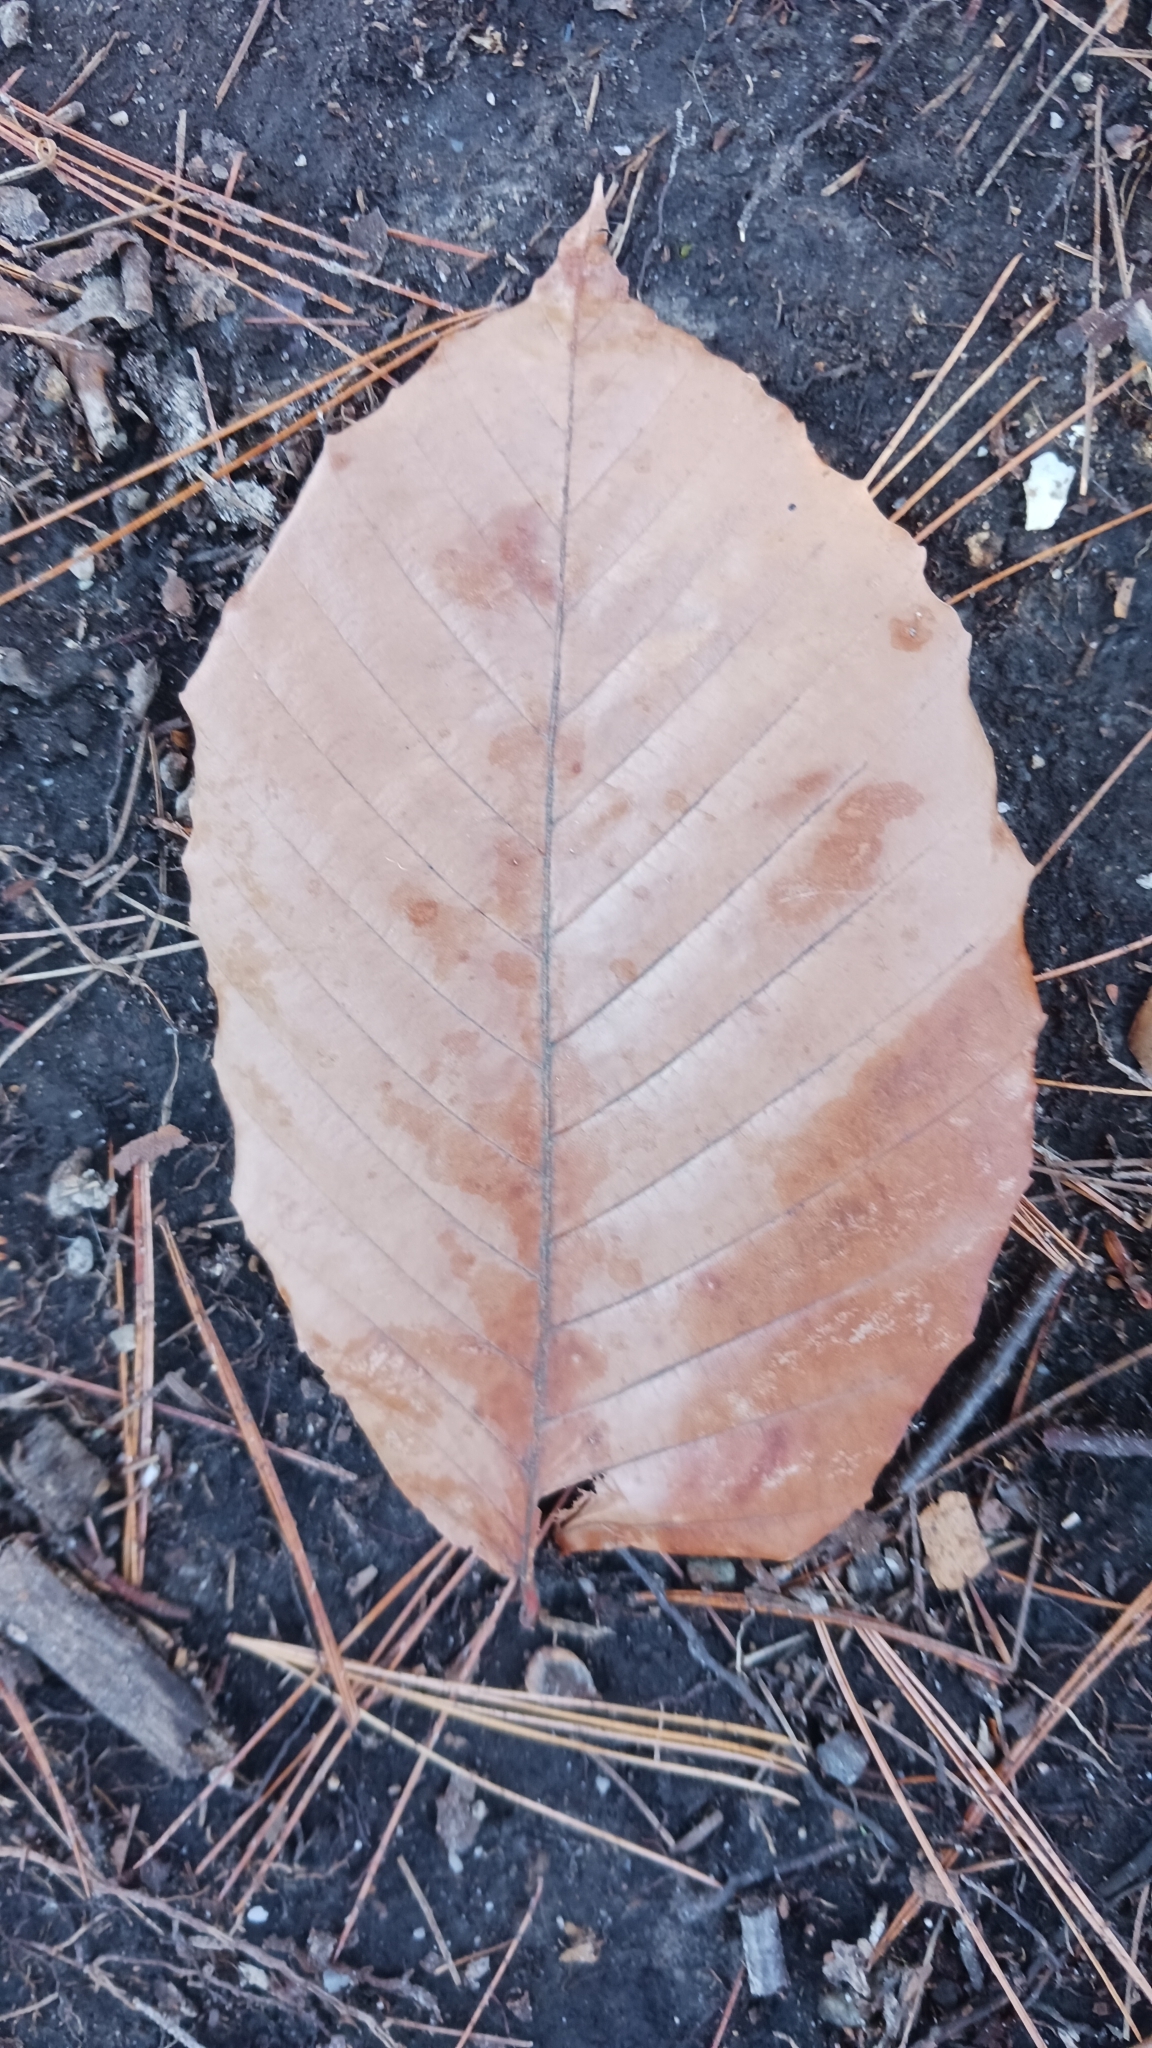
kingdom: Plantae
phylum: Tracheophyta
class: Magnoliopsida
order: Fagales
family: Fagaceae
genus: Fagus
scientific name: Fagus grandifolia
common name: American beech
